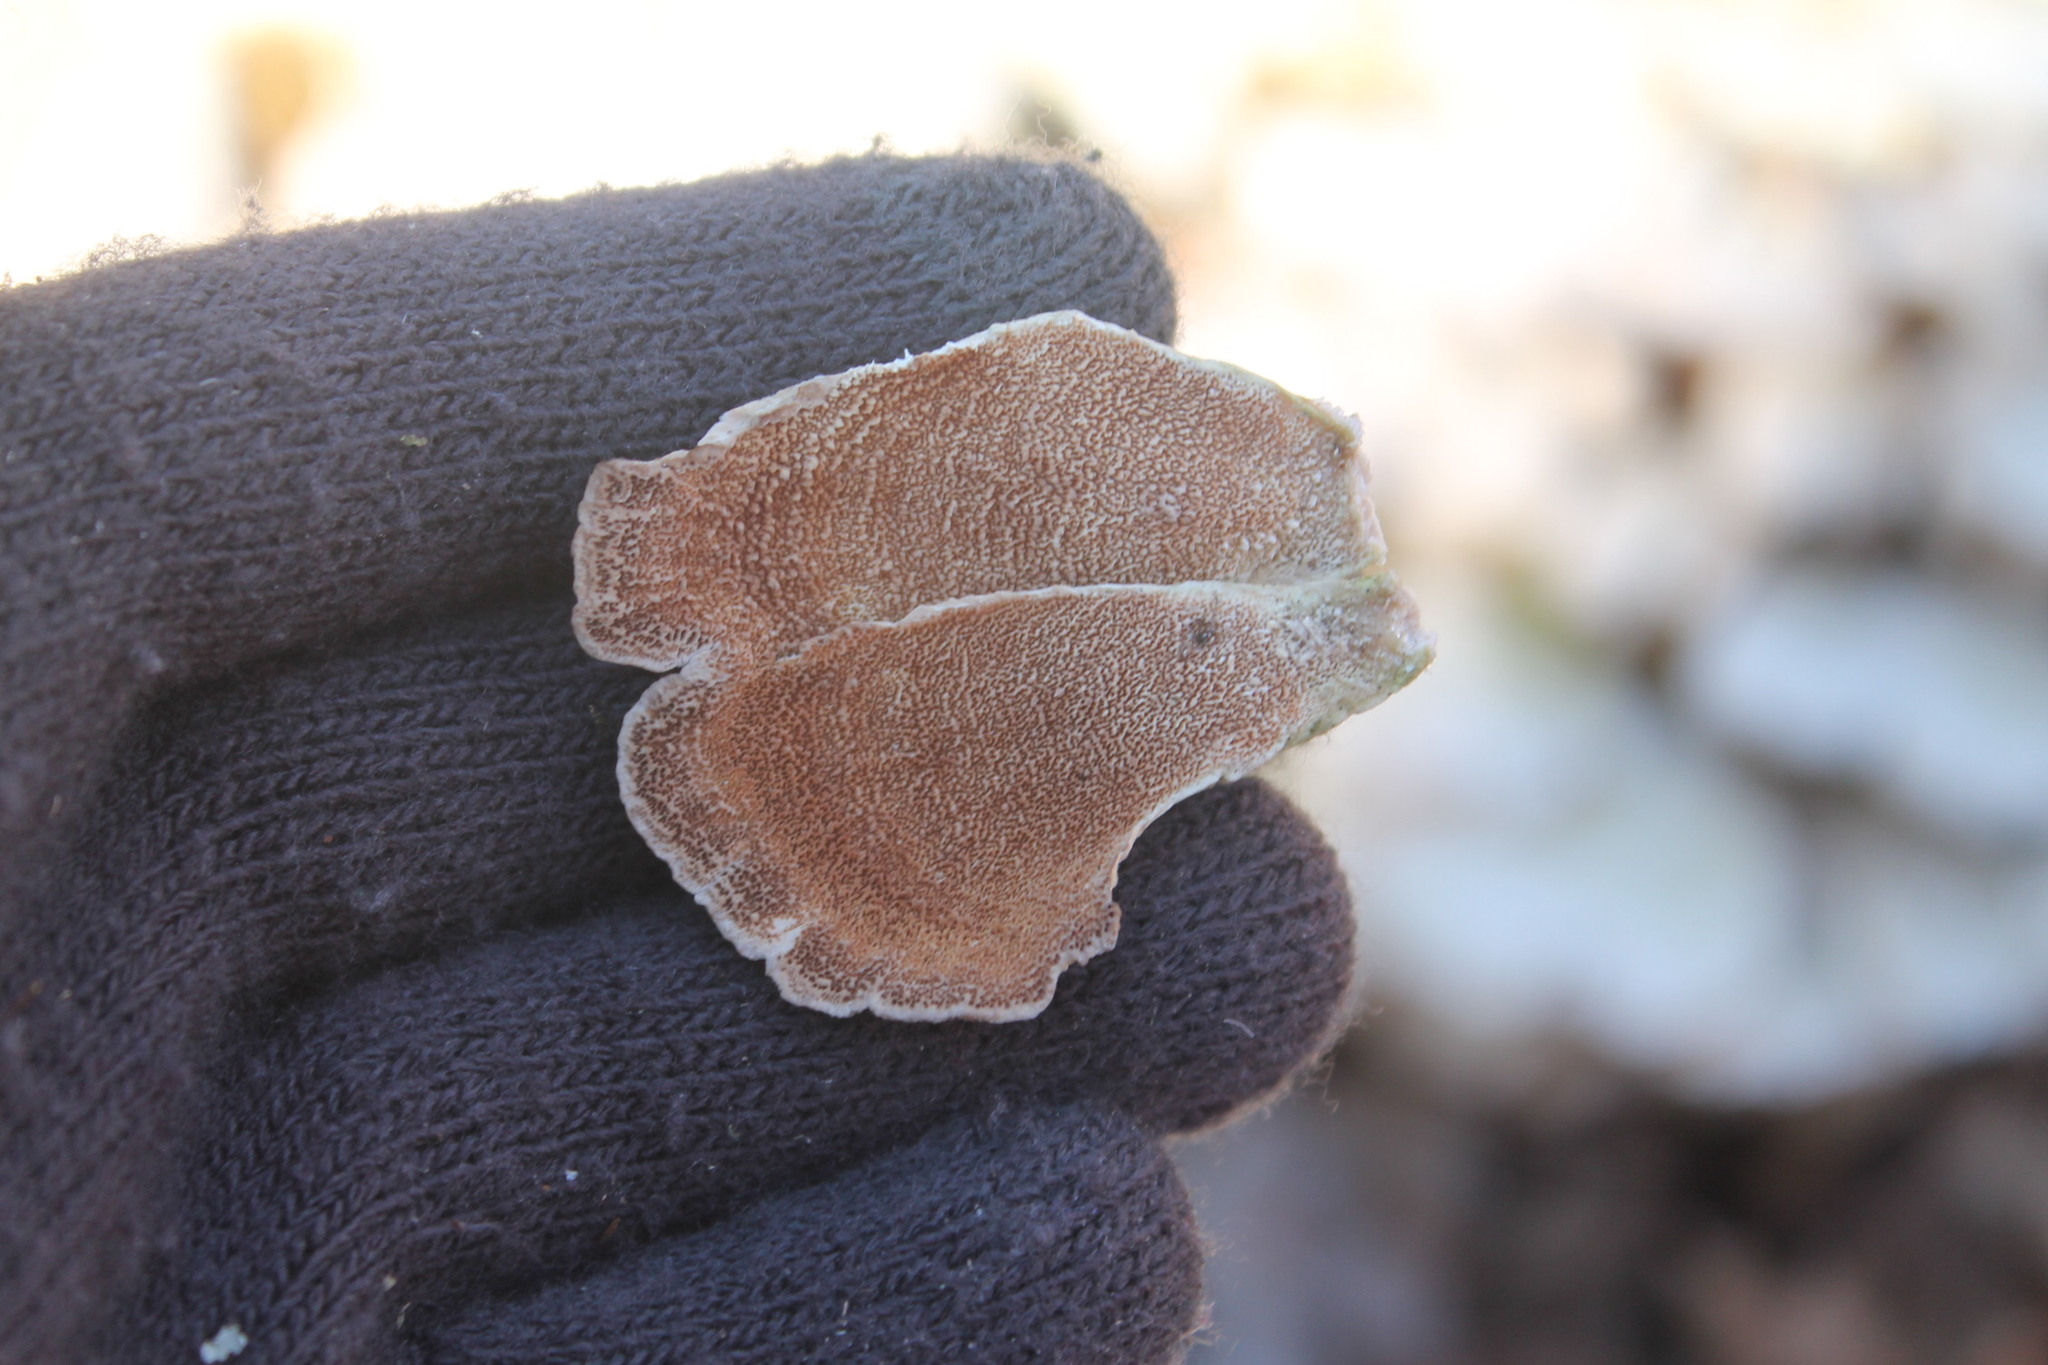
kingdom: Fungi
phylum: Basidiomycota
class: Agaricomycetes
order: Hymenochaetales
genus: Trichaptum
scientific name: Trichaptum biforme
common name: Violet-toothed polypore
